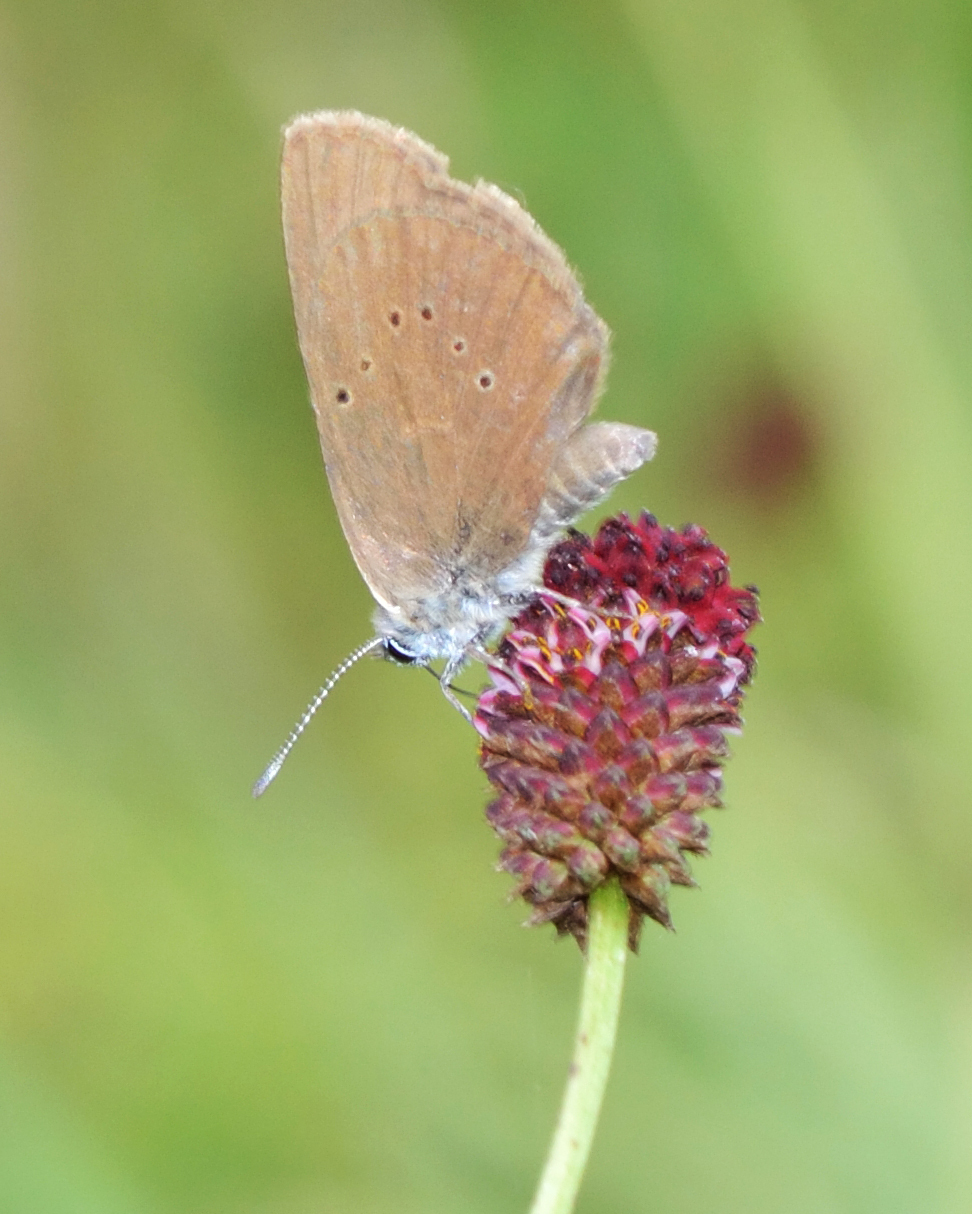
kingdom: Animalia
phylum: Arthropoda
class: Insecta
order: Lepidoptera
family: Lycaenidae
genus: Maculinea
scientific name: Maculinea nausithous
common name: Dusky large blue
